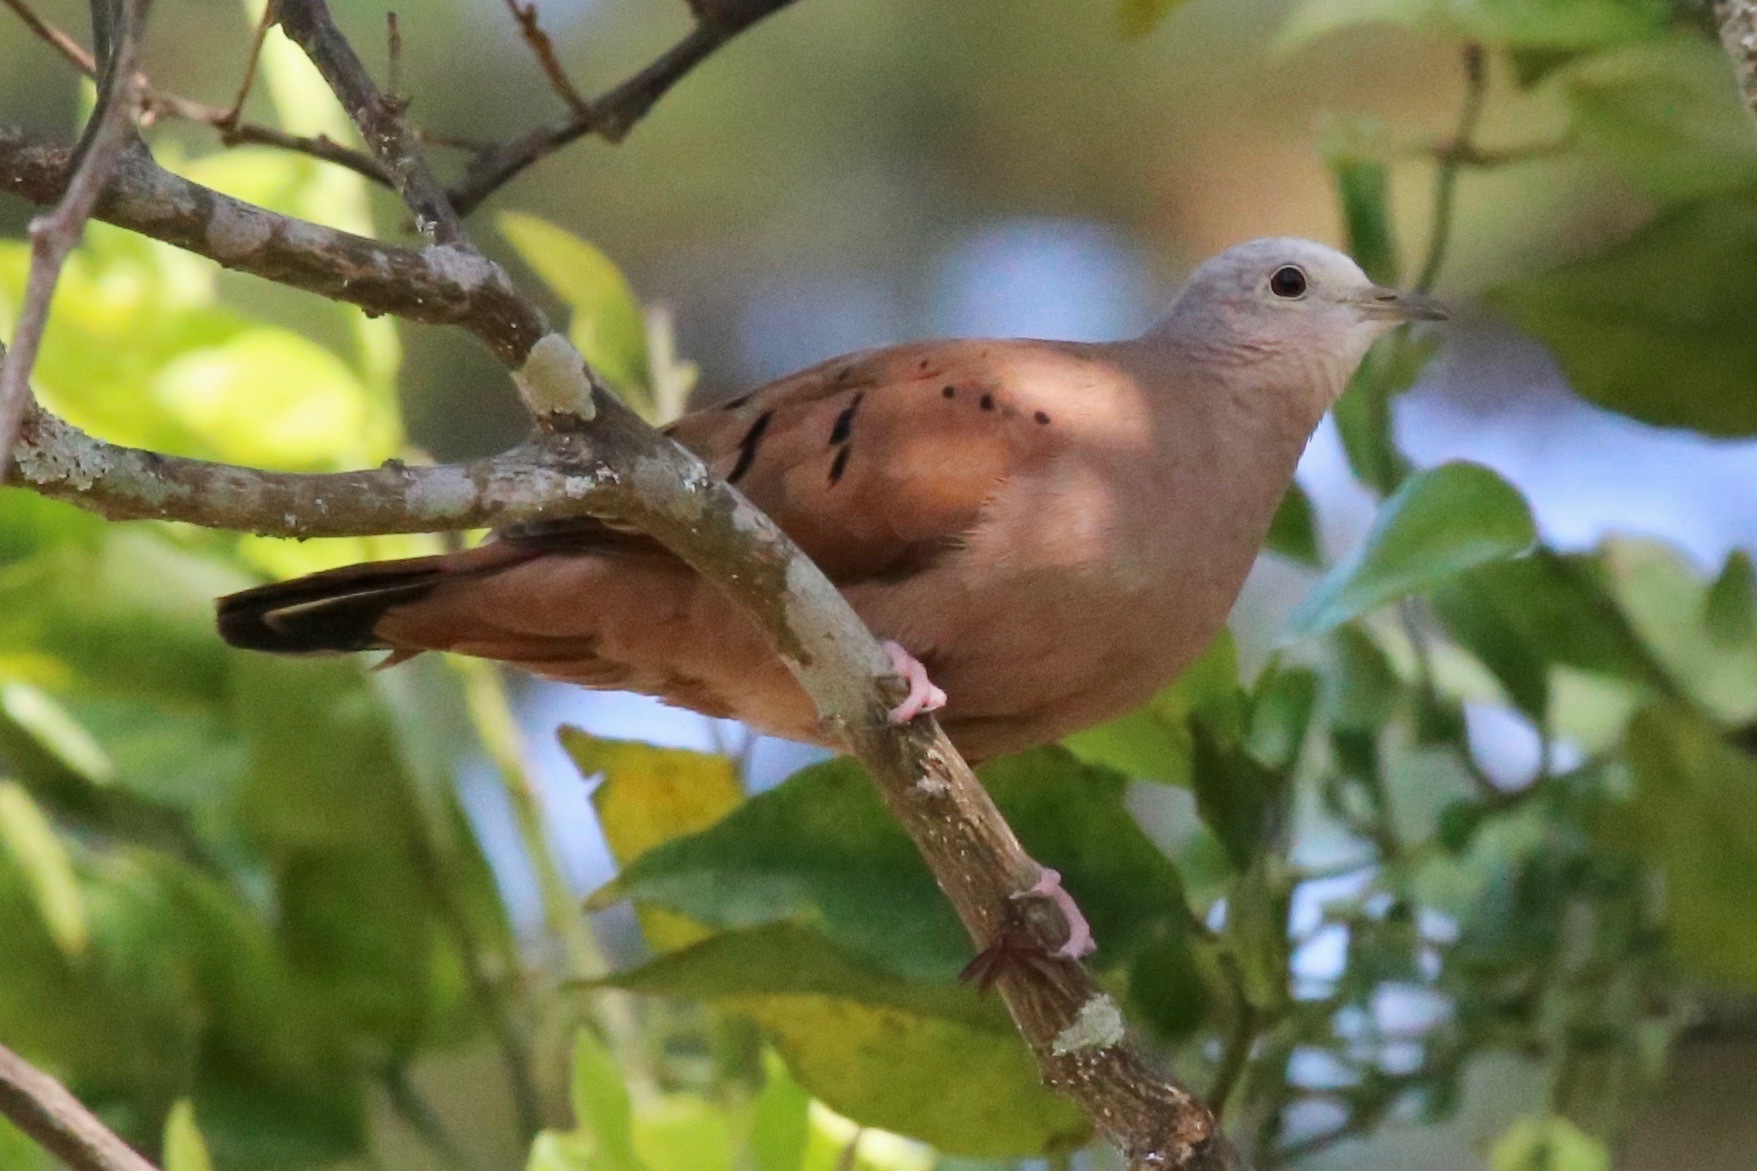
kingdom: Animalia
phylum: Chordata
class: Aves
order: Columbiformes
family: Columbidae
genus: Columbina
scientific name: Columbina talpacoti
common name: Ruddy ground dove
